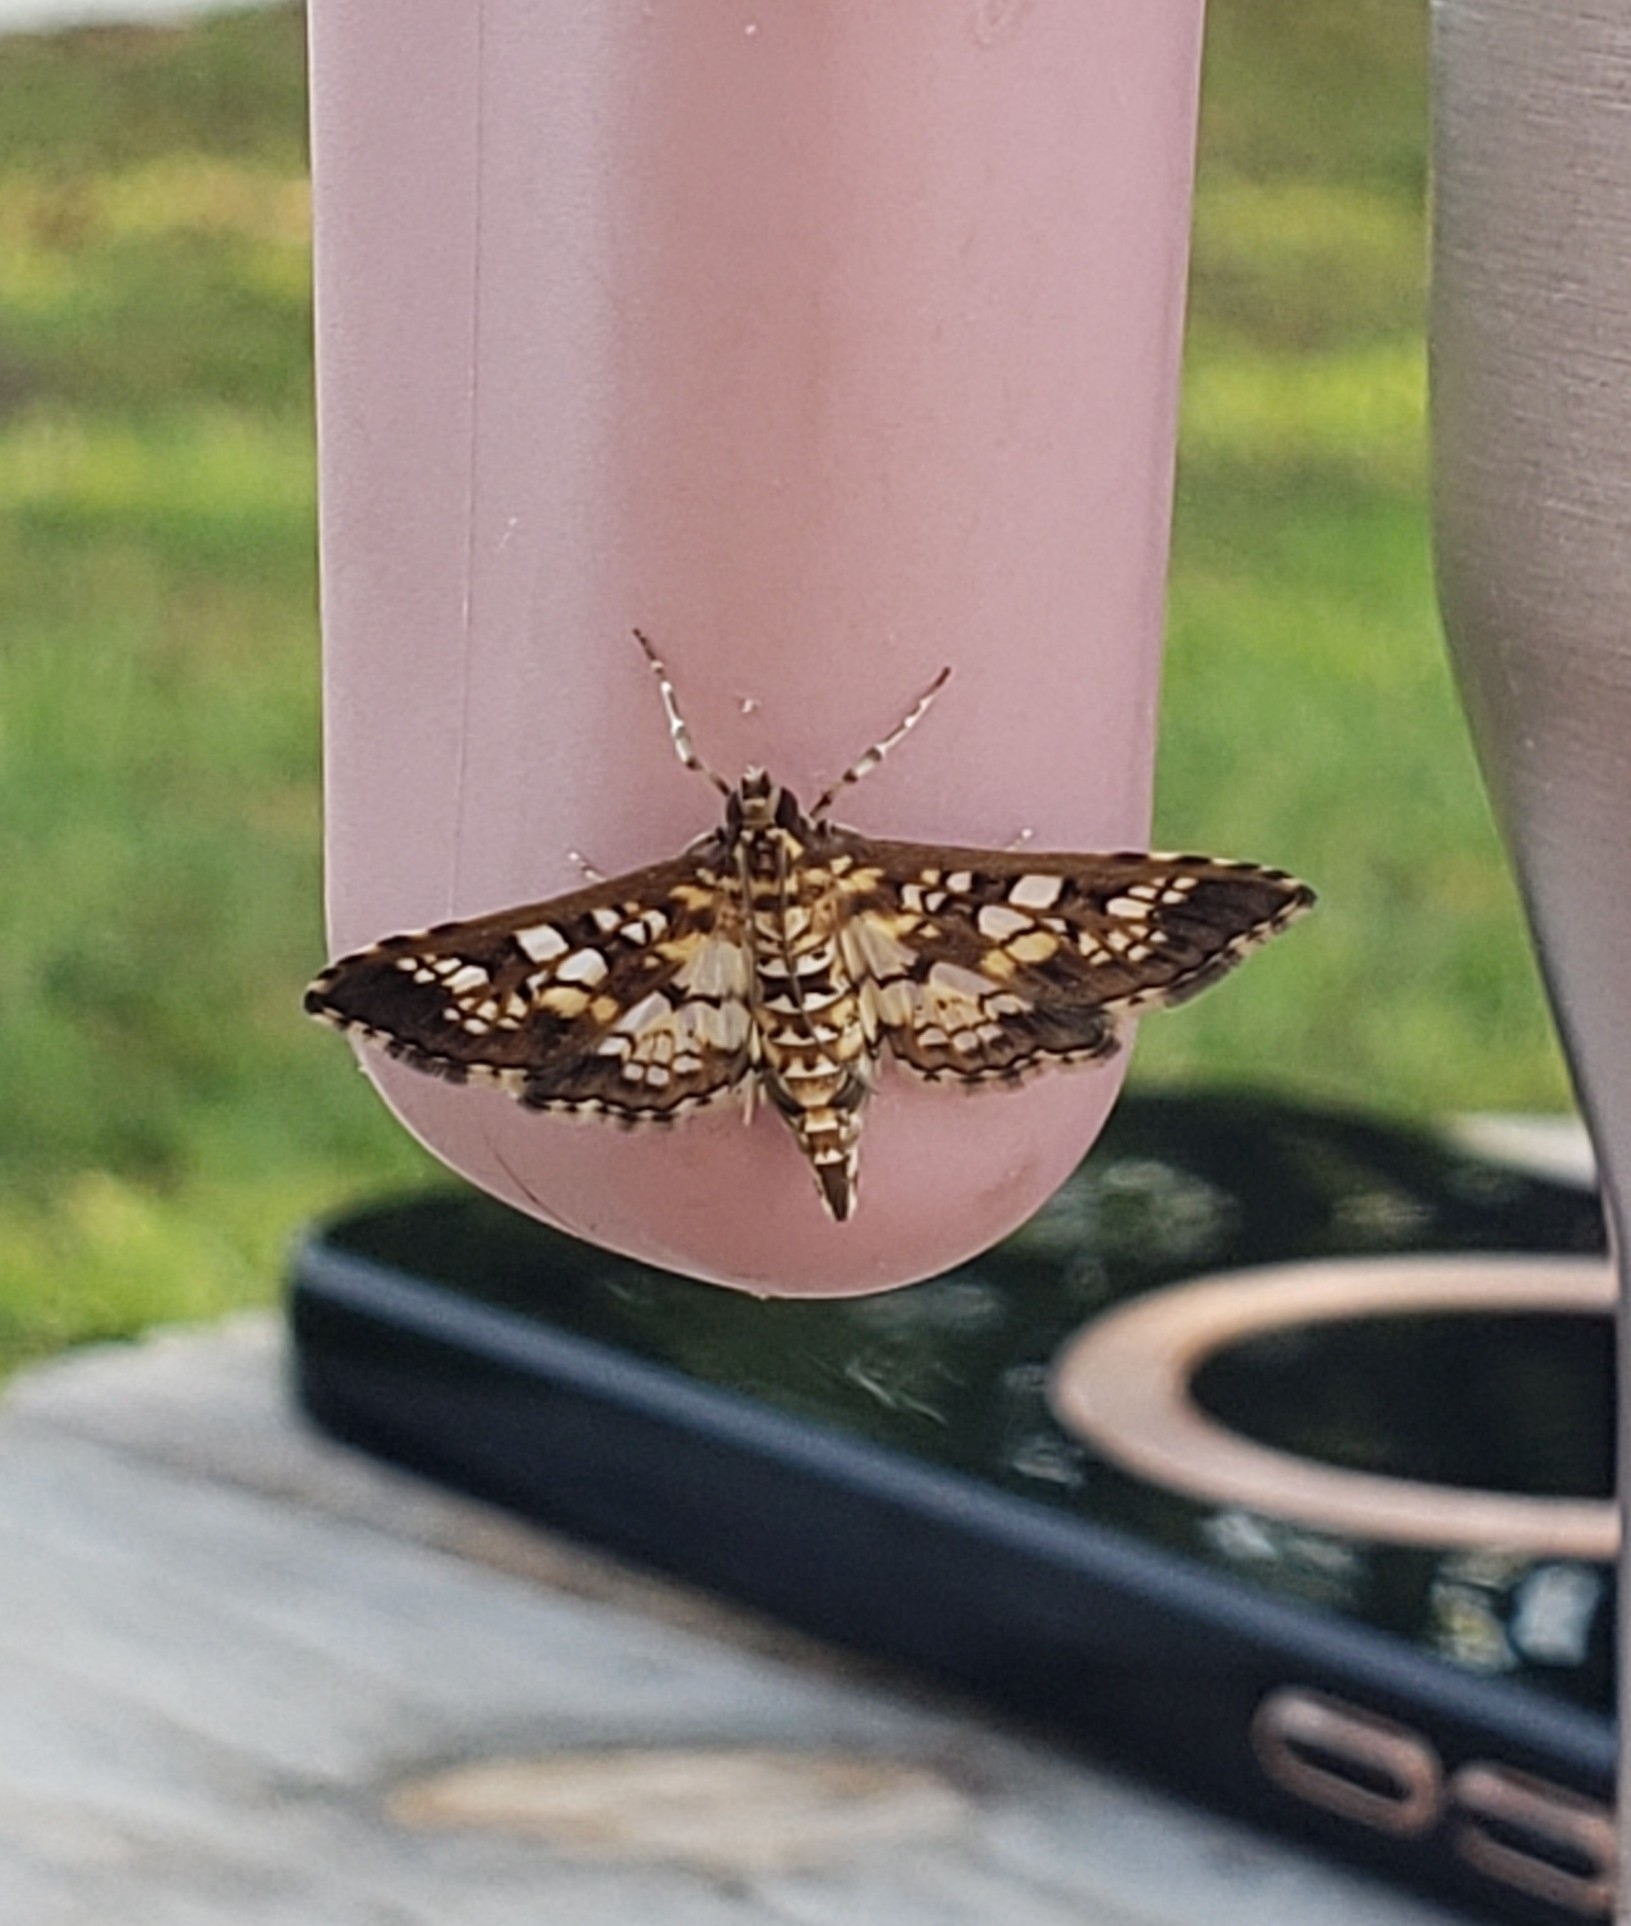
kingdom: Animalia
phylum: Arthropoda
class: Insecta
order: Lepidoptera
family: Crambidae
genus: Samea
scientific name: Samea ecclesialis
